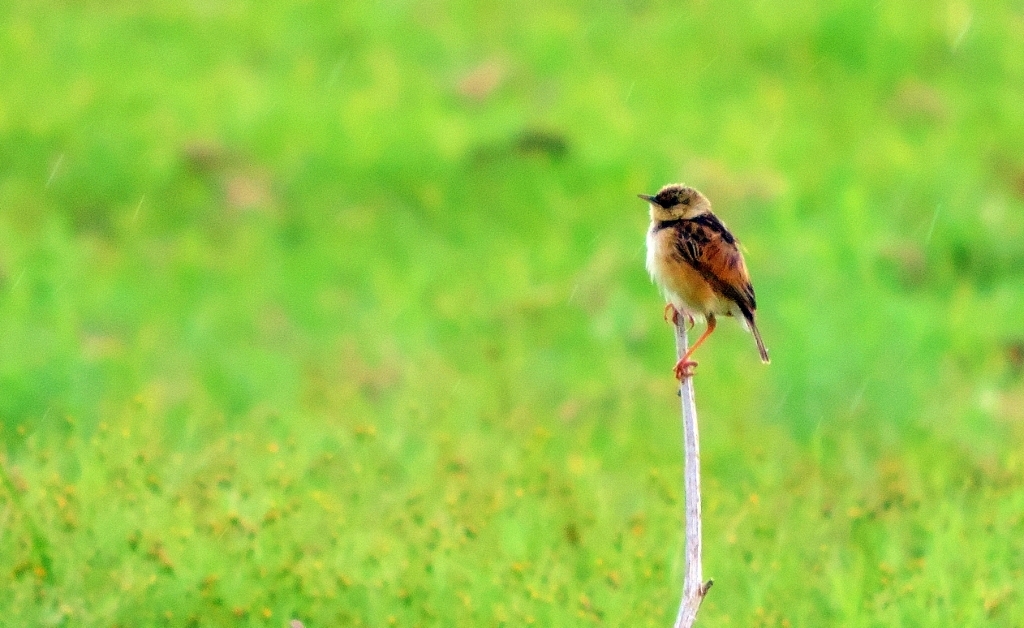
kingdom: Animalia
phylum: Chordata
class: Aves
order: Passeriformes
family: Cisticolidae
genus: Cisticola
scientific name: Cisticola cinnamomeus
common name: Pale-crowned cisticola
